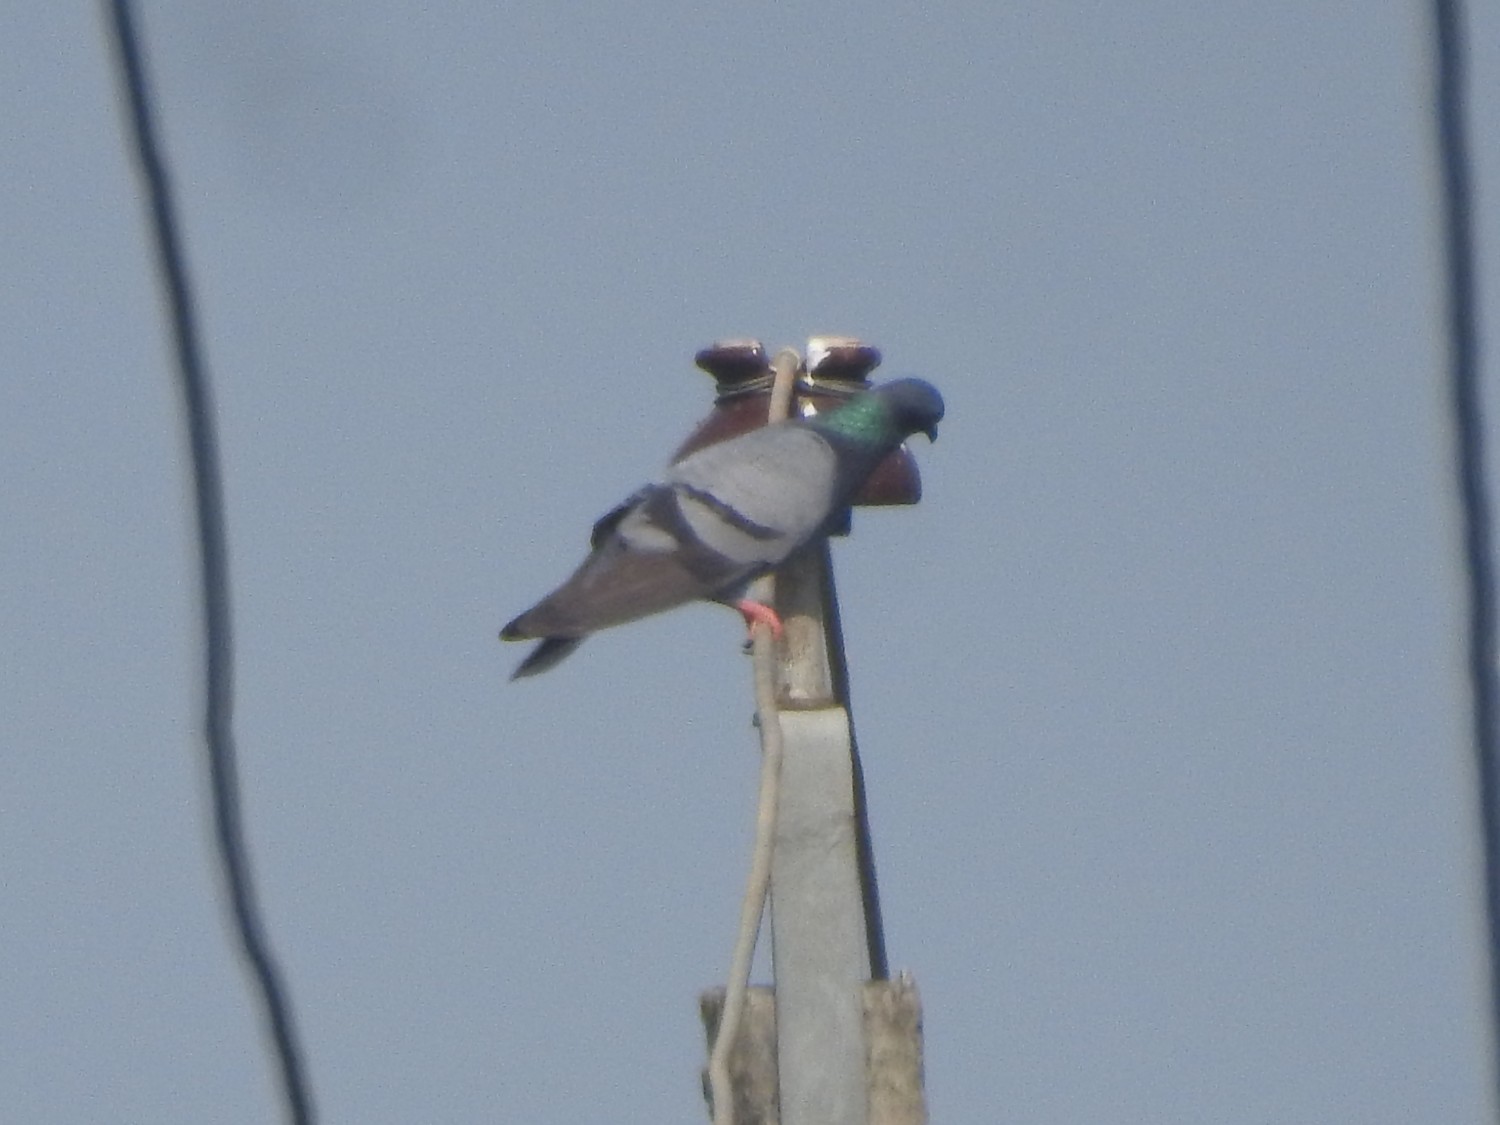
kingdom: Animalia
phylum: Chordata
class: Aves
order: Columbiformes
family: Columbidae
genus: Columba
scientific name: Columba livia
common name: Rock pigeon
